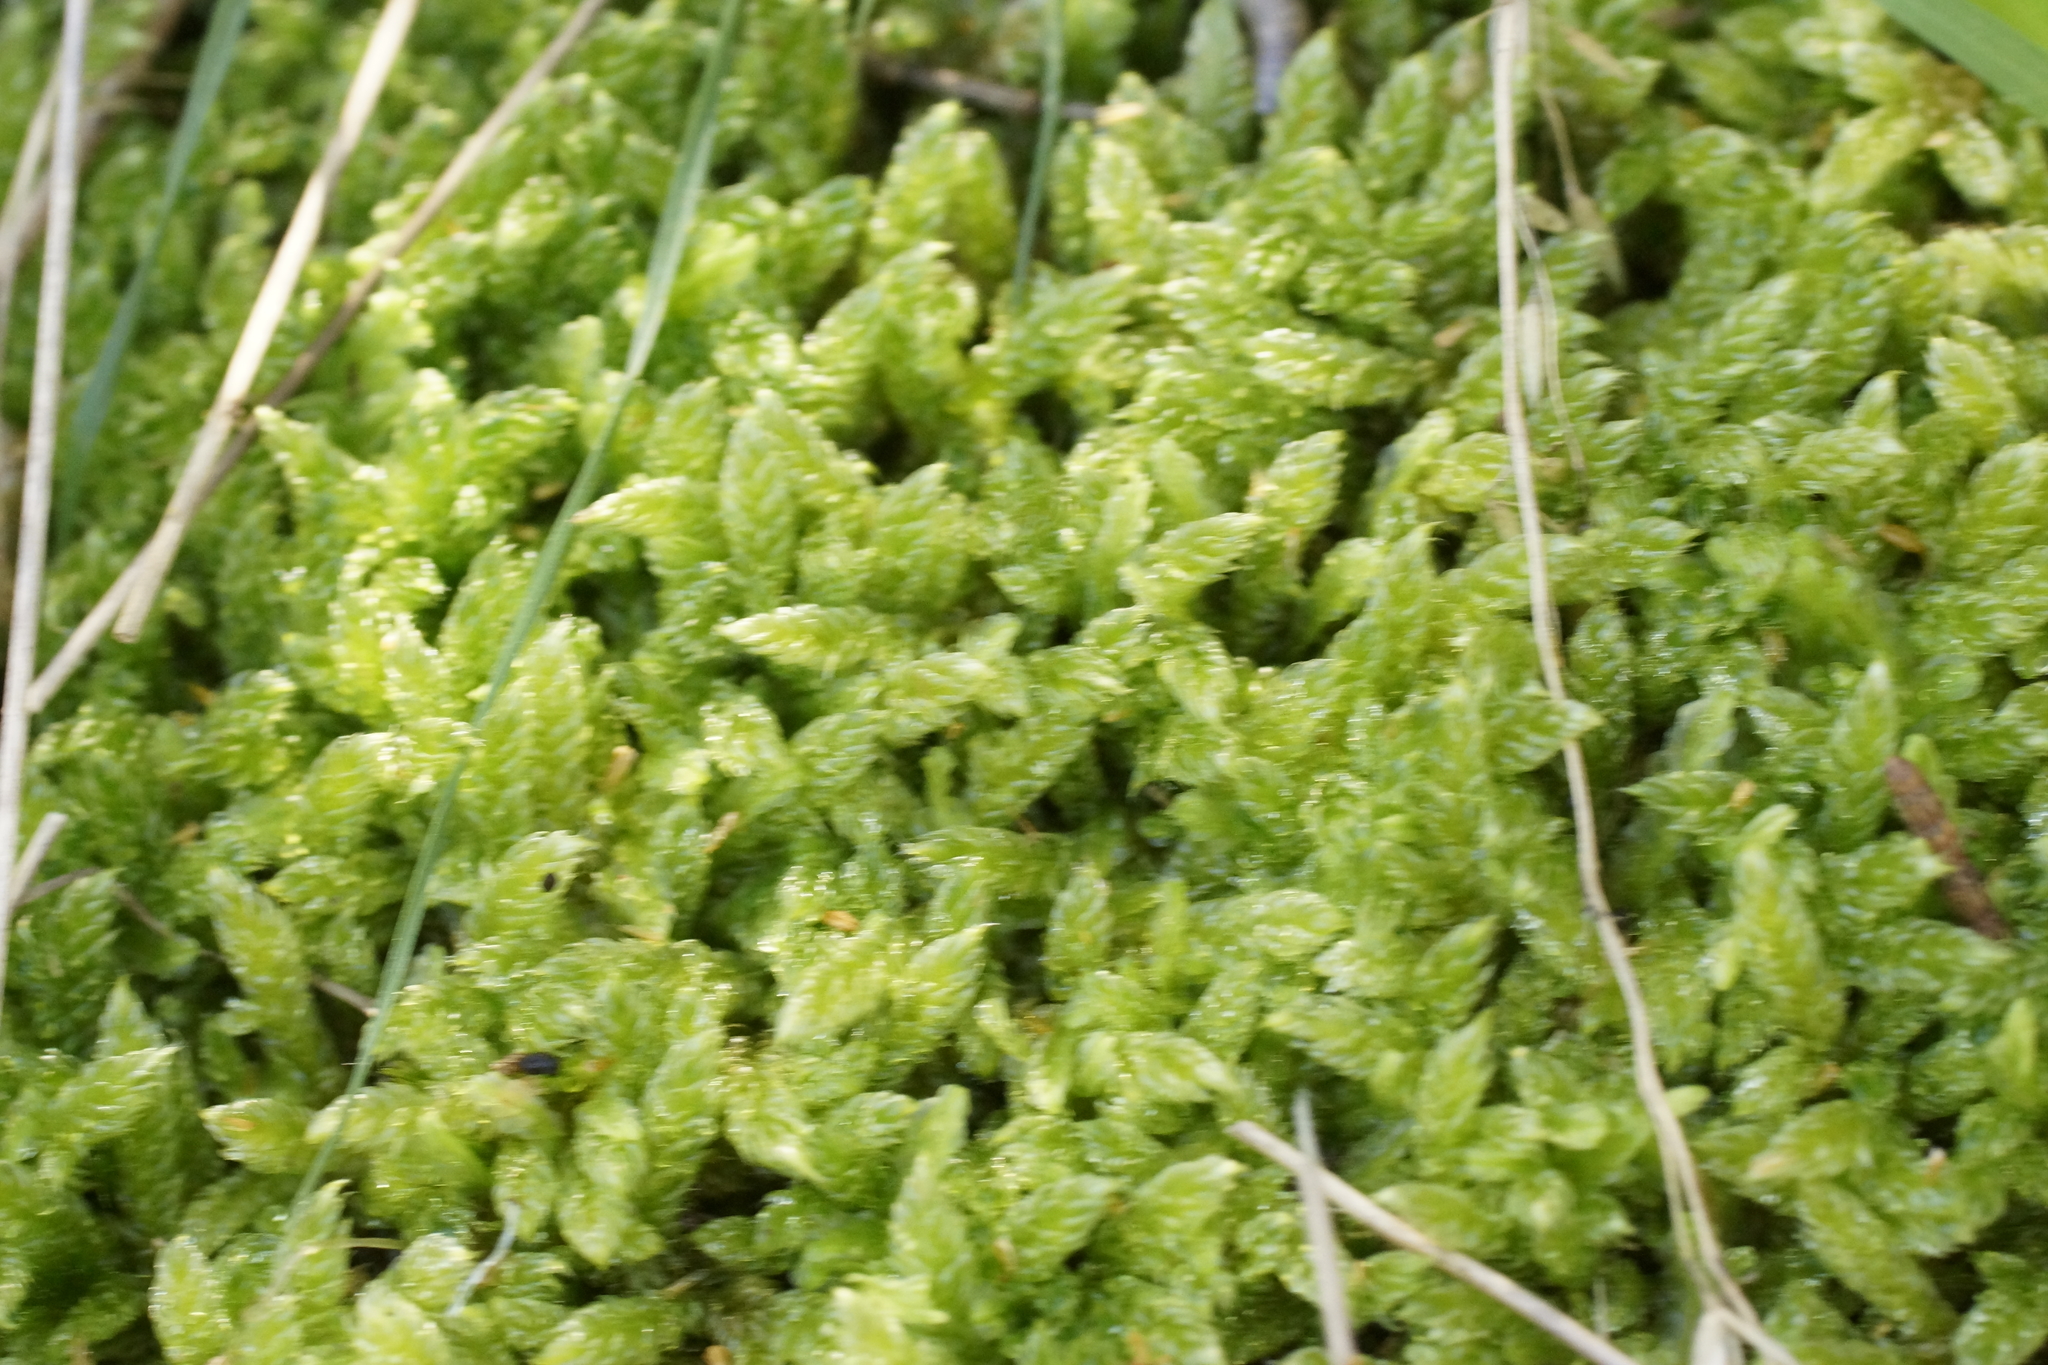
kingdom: Plantae
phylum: Bryophyta
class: Bryopsida
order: Hypnales
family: Hypnaceae
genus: Hypnum
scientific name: Hypnum cupressiforme
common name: Cypress-leaved plait-moss
